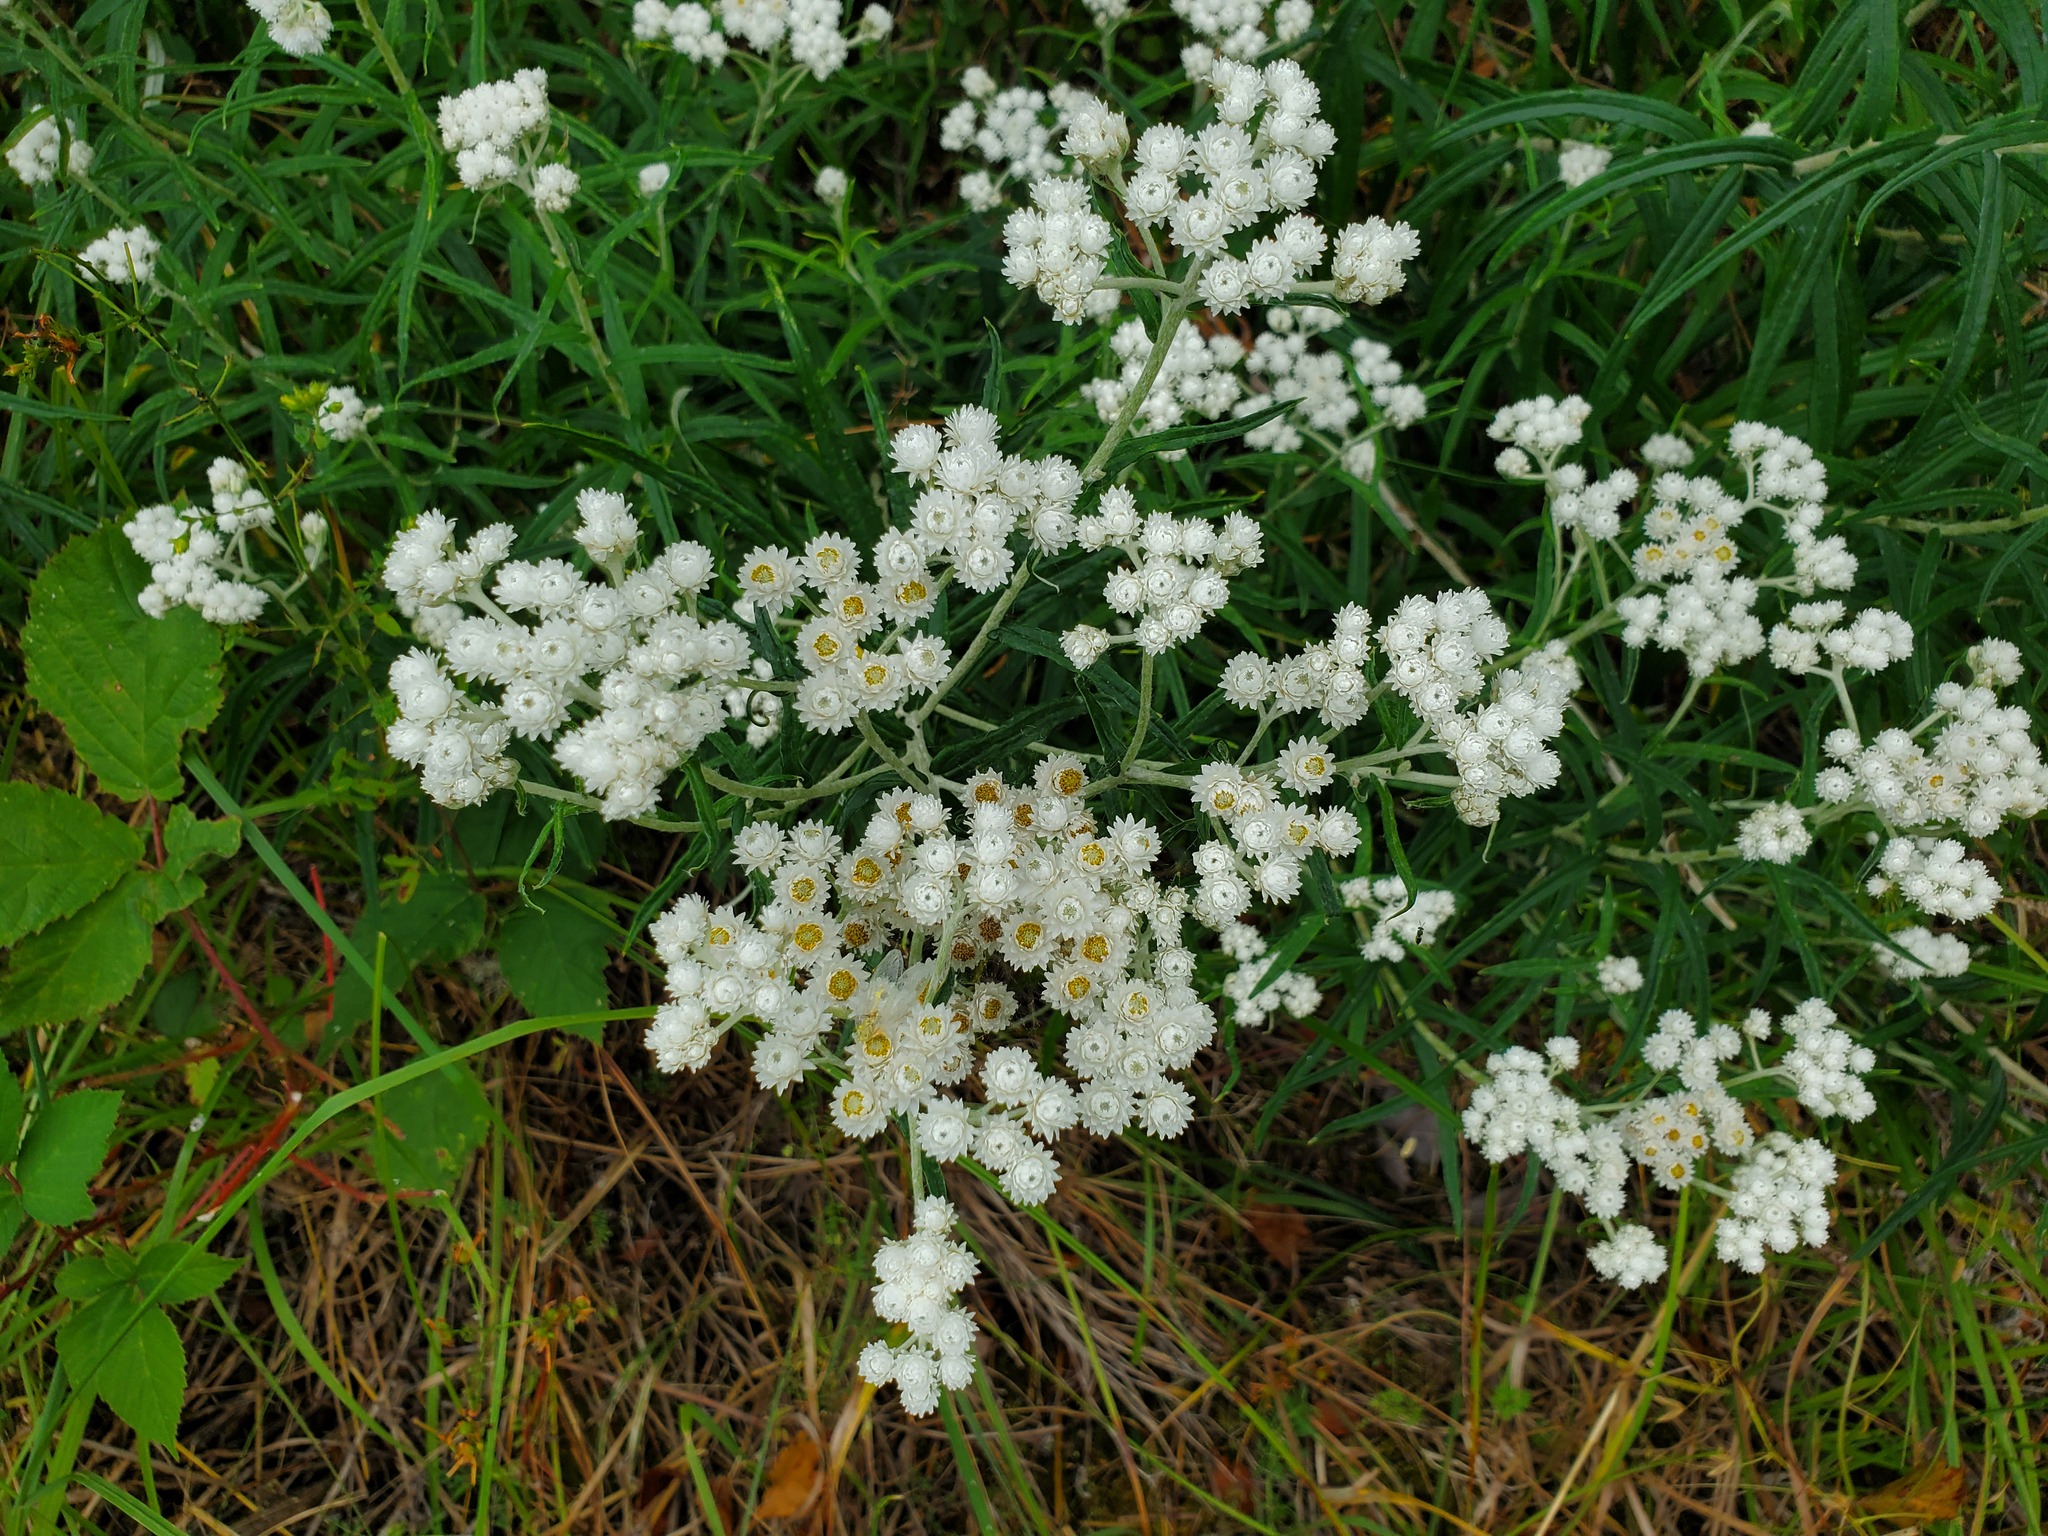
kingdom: Plantae
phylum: Tracheophyta
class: Magnoliopsida
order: Asterales
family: Asteraceae
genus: Anaphalis
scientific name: Anaphalis margaritacea
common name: Pearly everlasting
